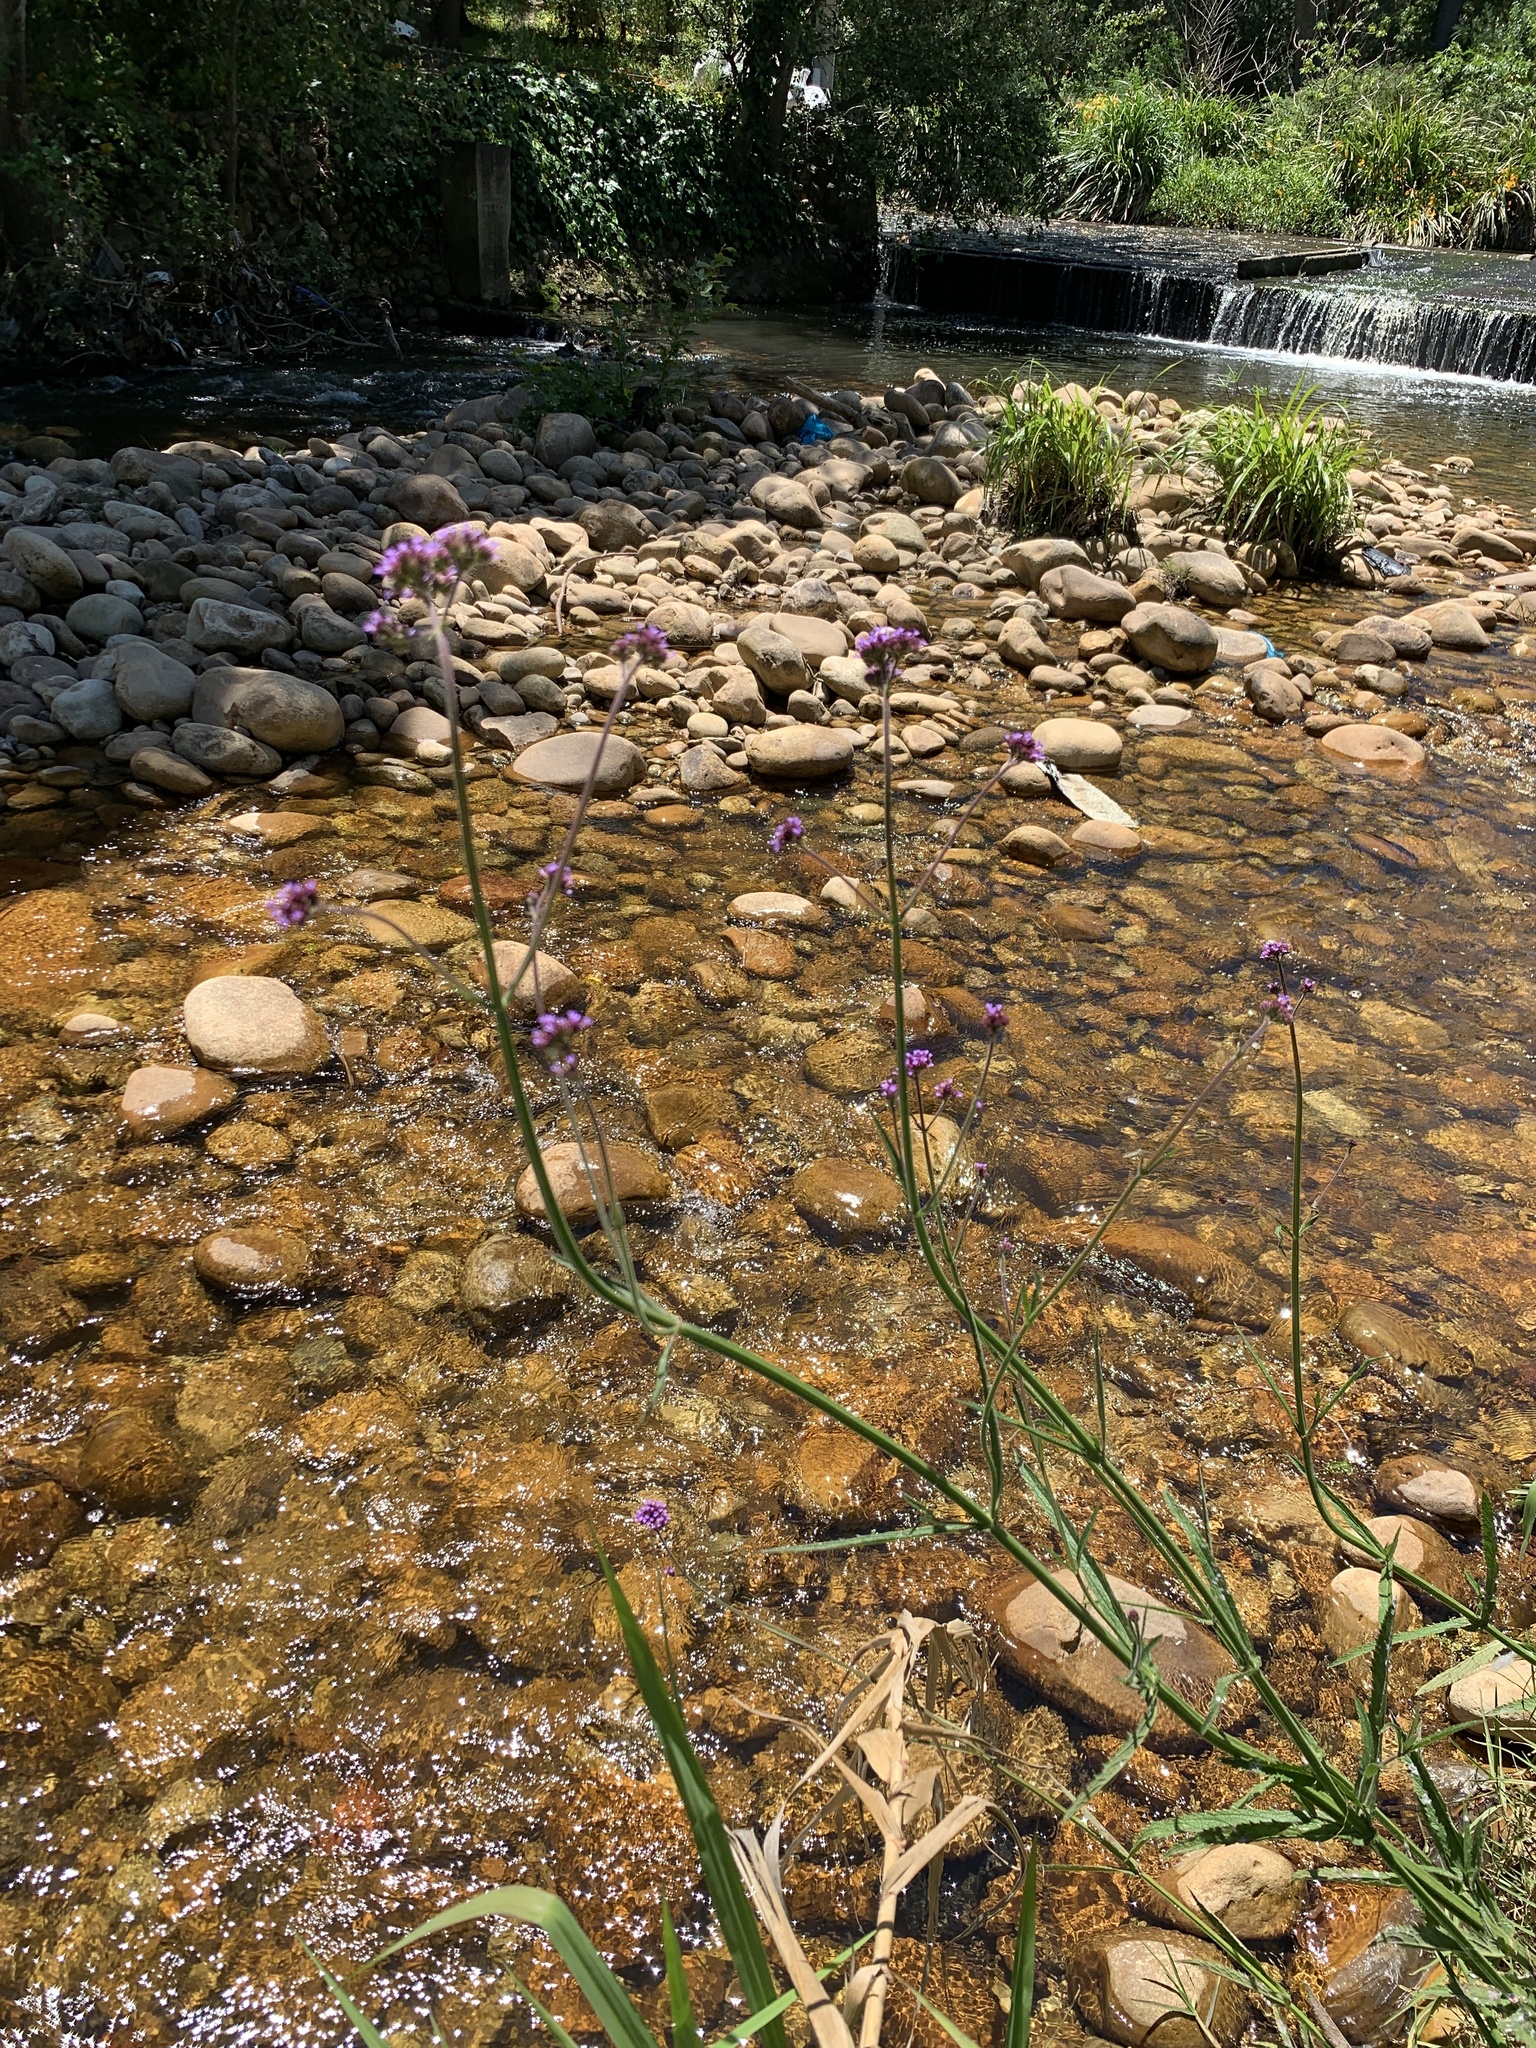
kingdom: Plantae
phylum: Tracheophyta
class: Magnoliopsida
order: Lamiales
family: Verbenaceae
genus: Verbena
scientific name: Verbena bonariensis
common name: Purpletop vervain
